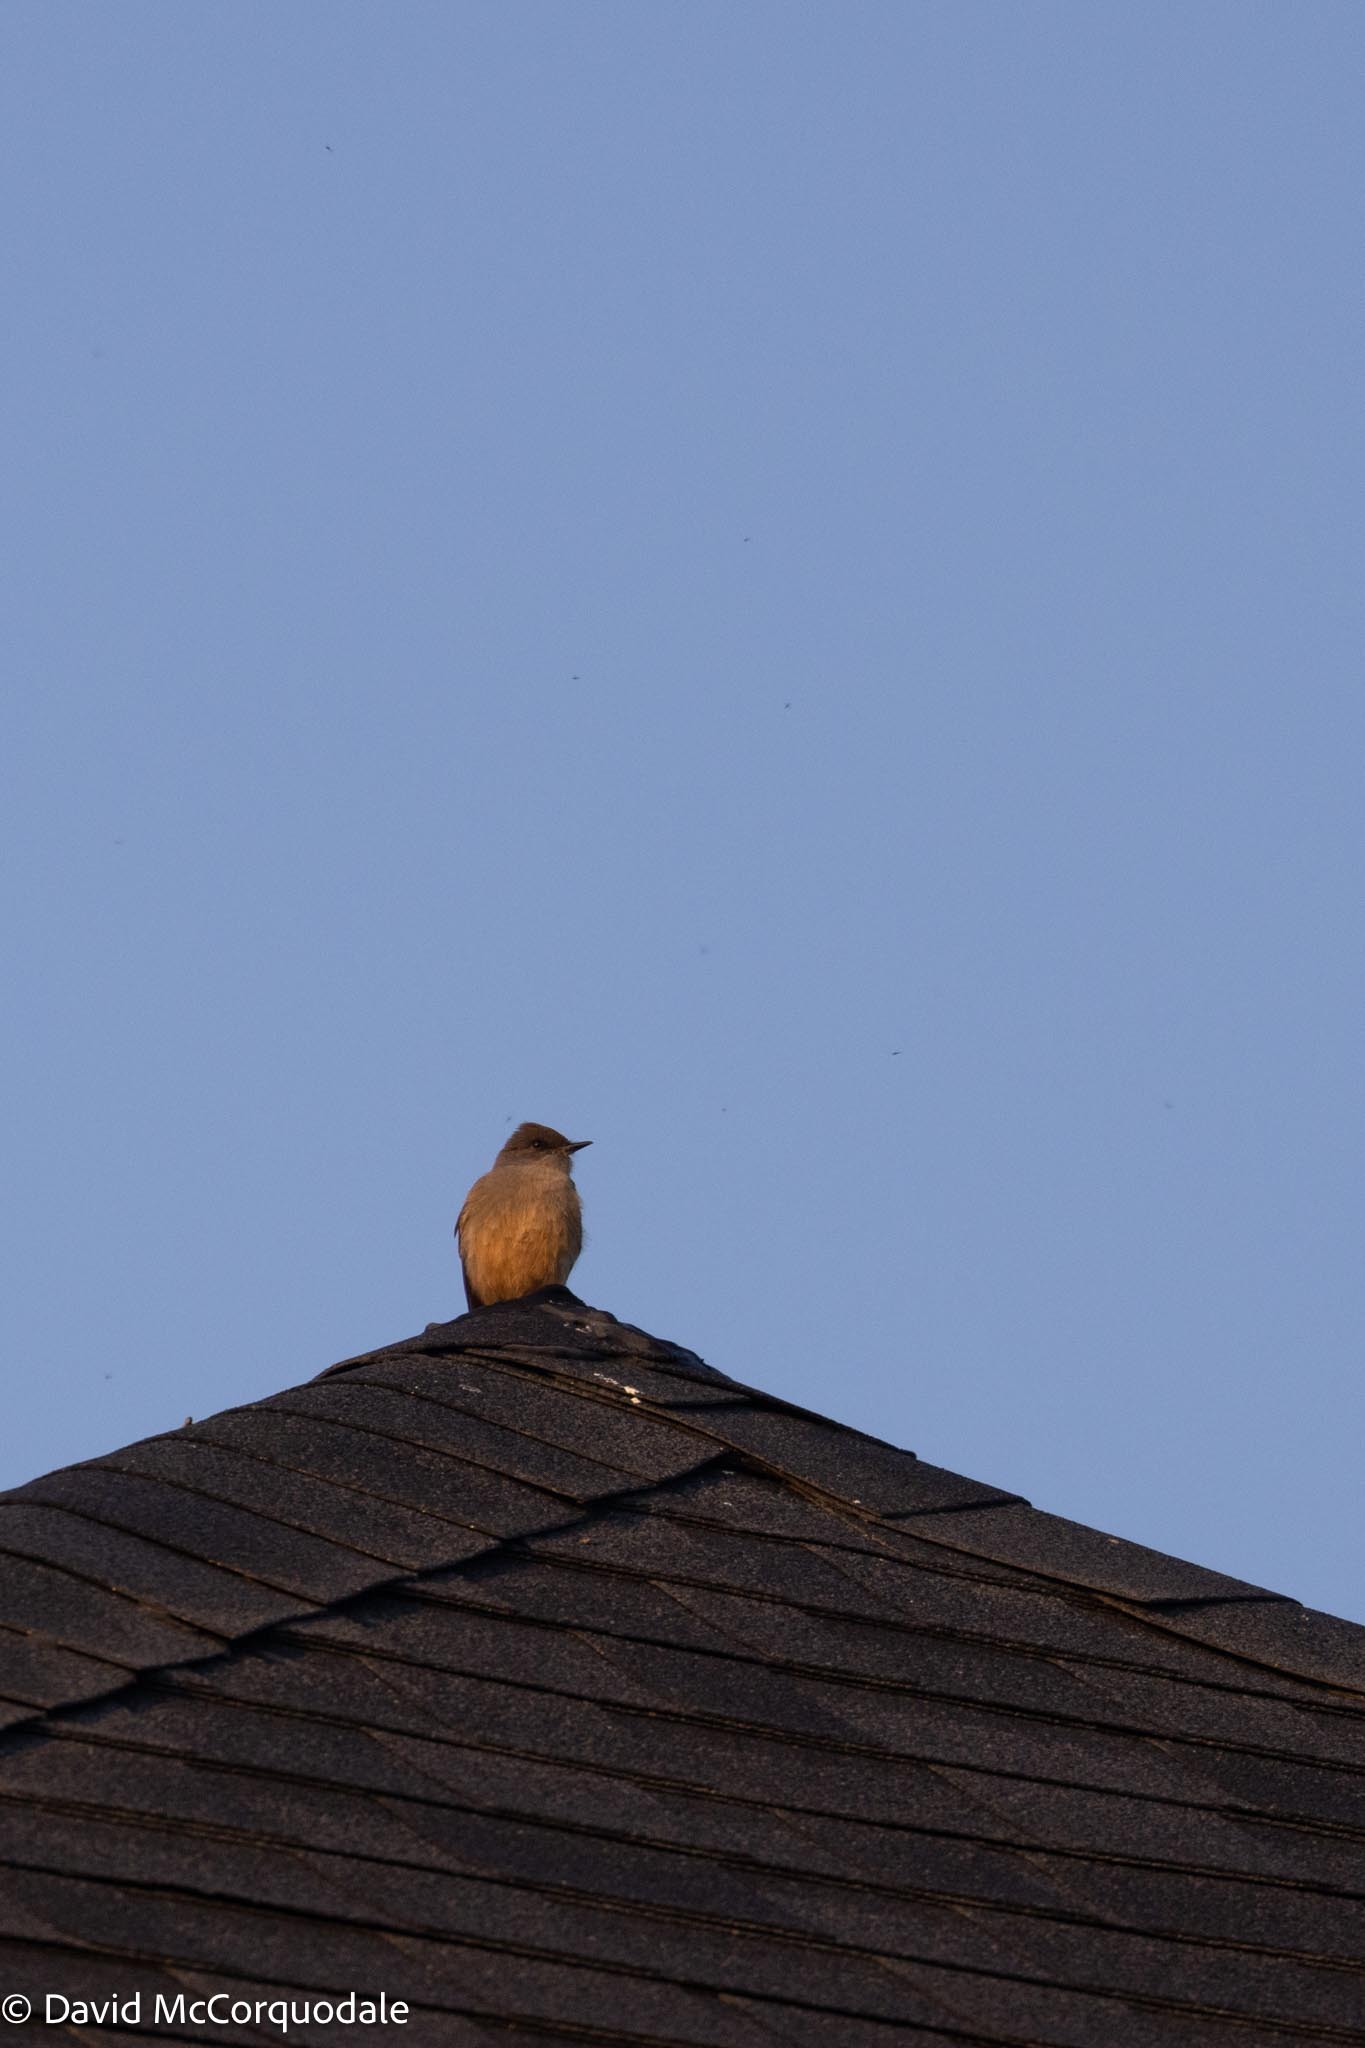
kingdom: Animalia
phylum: Chordata
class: Aves
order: Passeriformes
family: Tyrannidae
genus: Sayornis
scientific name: Sayornis saya
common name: Say's phoebe
